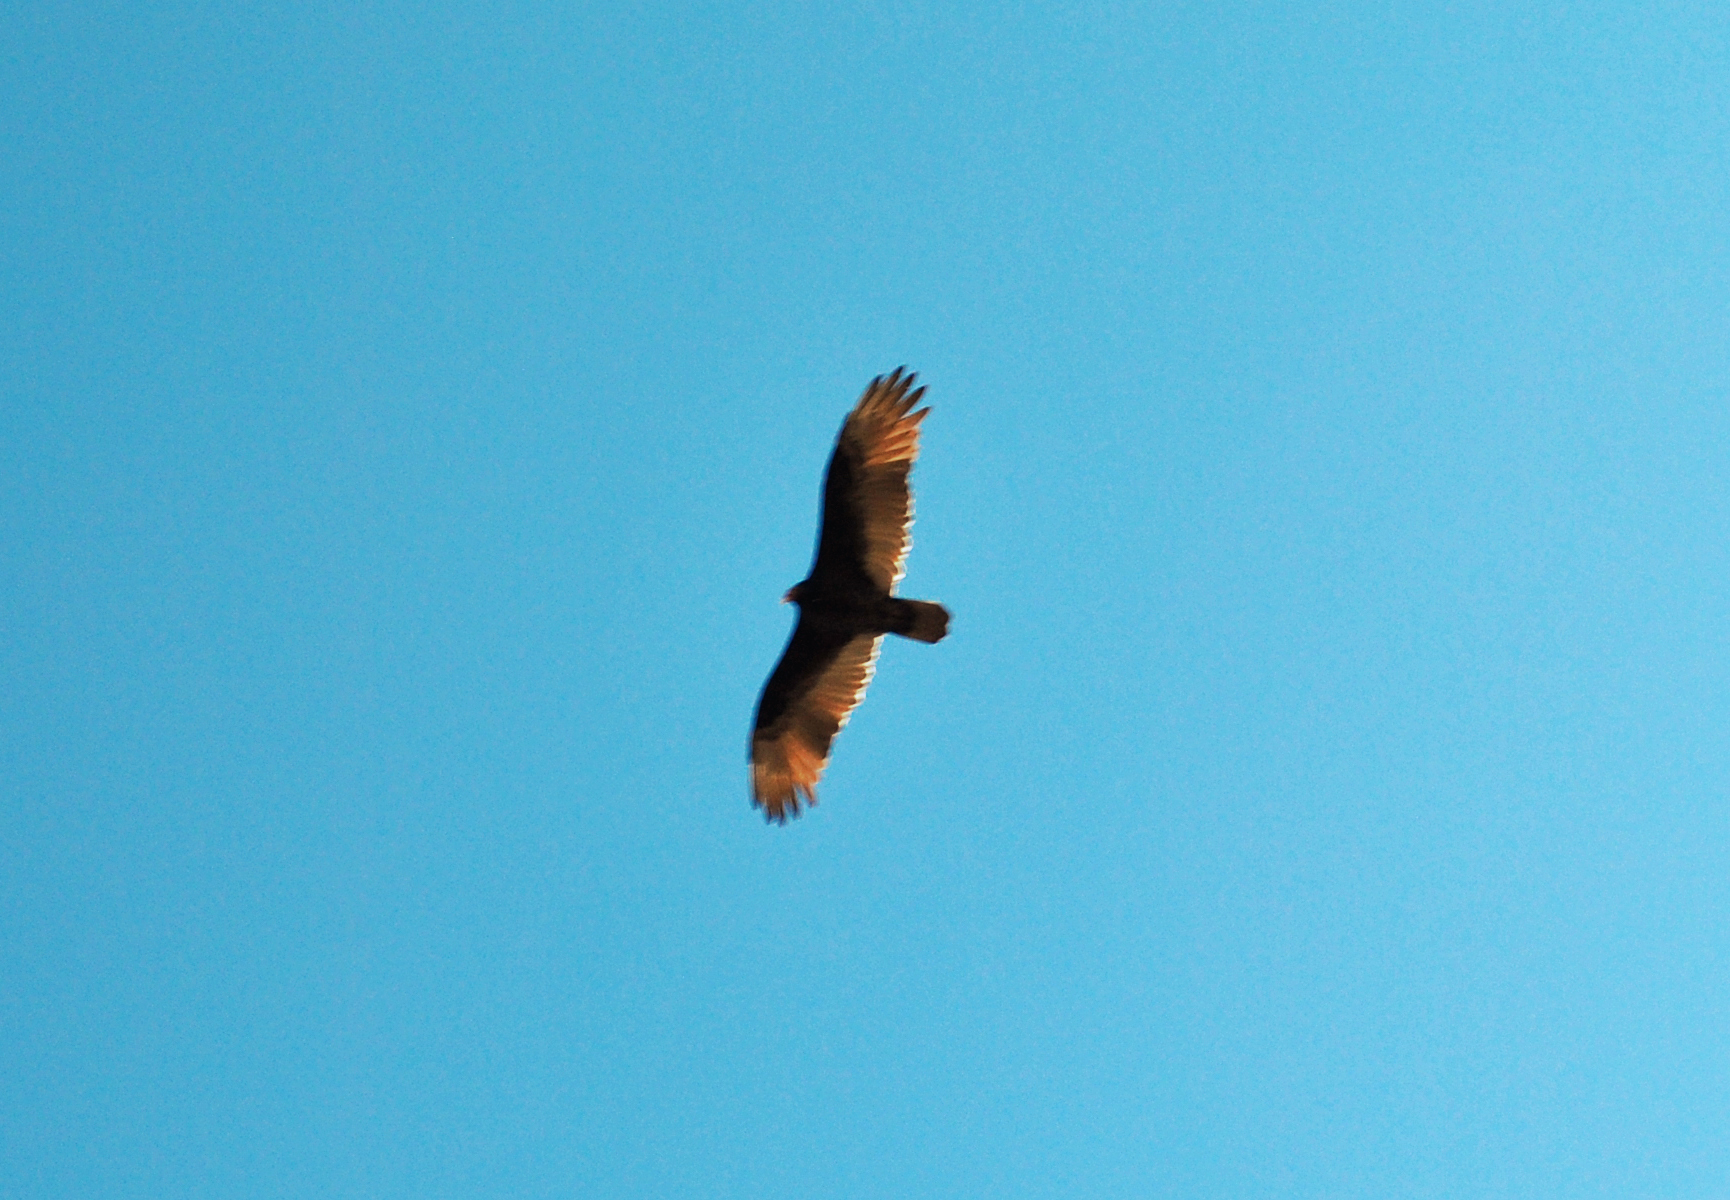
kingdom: Animalia
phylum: Chordata
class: Aves
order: Accipitriformes
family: Cathartidae
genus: Cathartes
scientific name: Cathartes aura
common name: Turkey vulture
